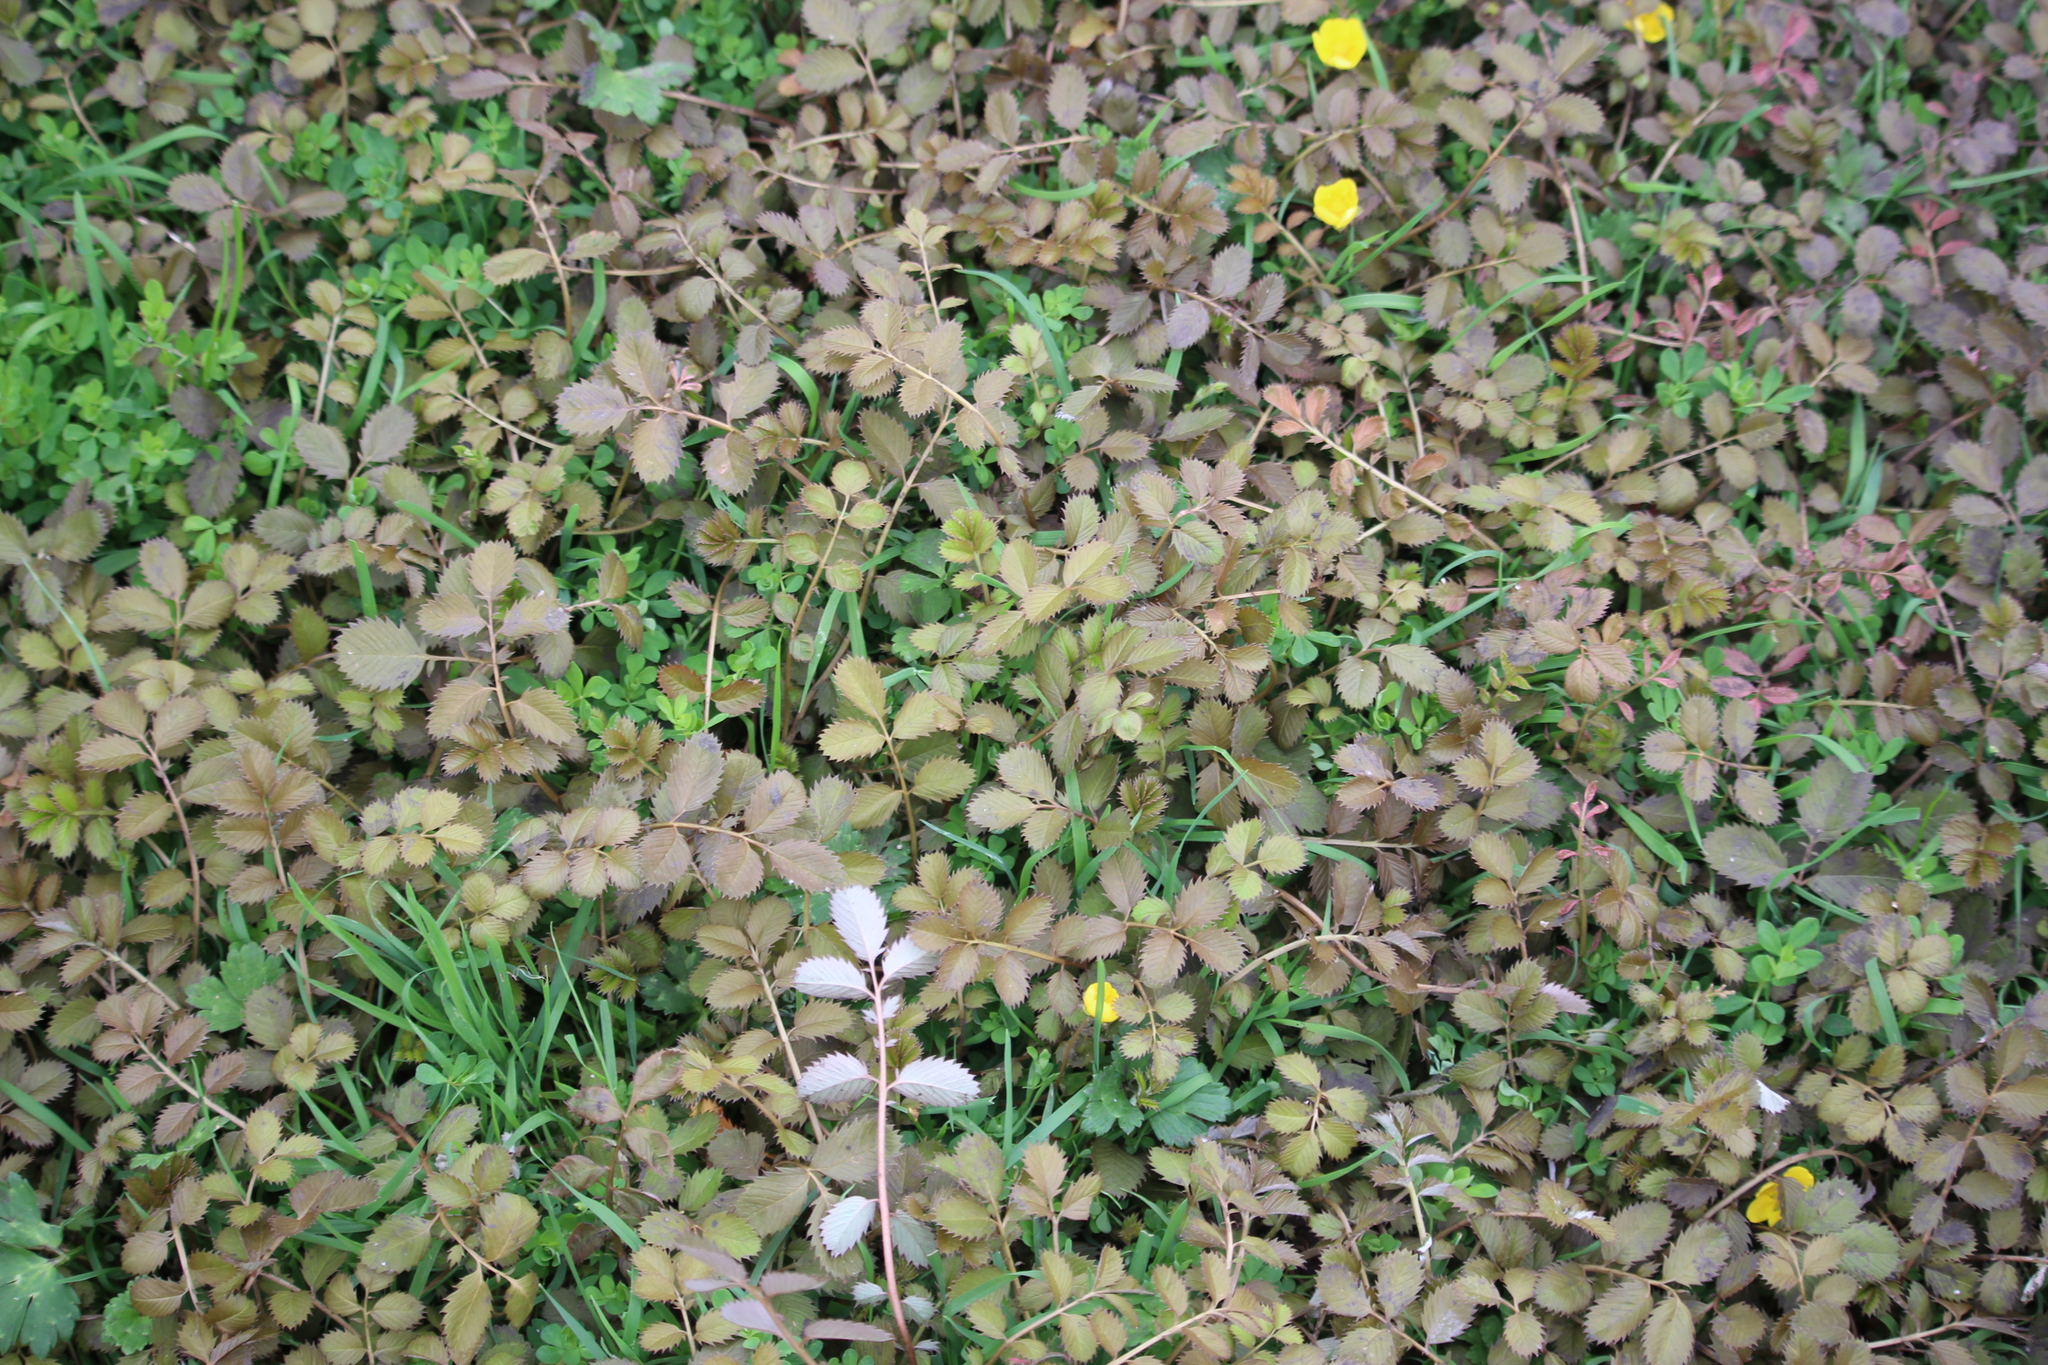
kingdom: Plantae
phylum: Tracheophyta
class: Magnoliopsida
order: Rosales
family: Rosaceae
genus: Argentina
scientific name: Argentina anserinoides
